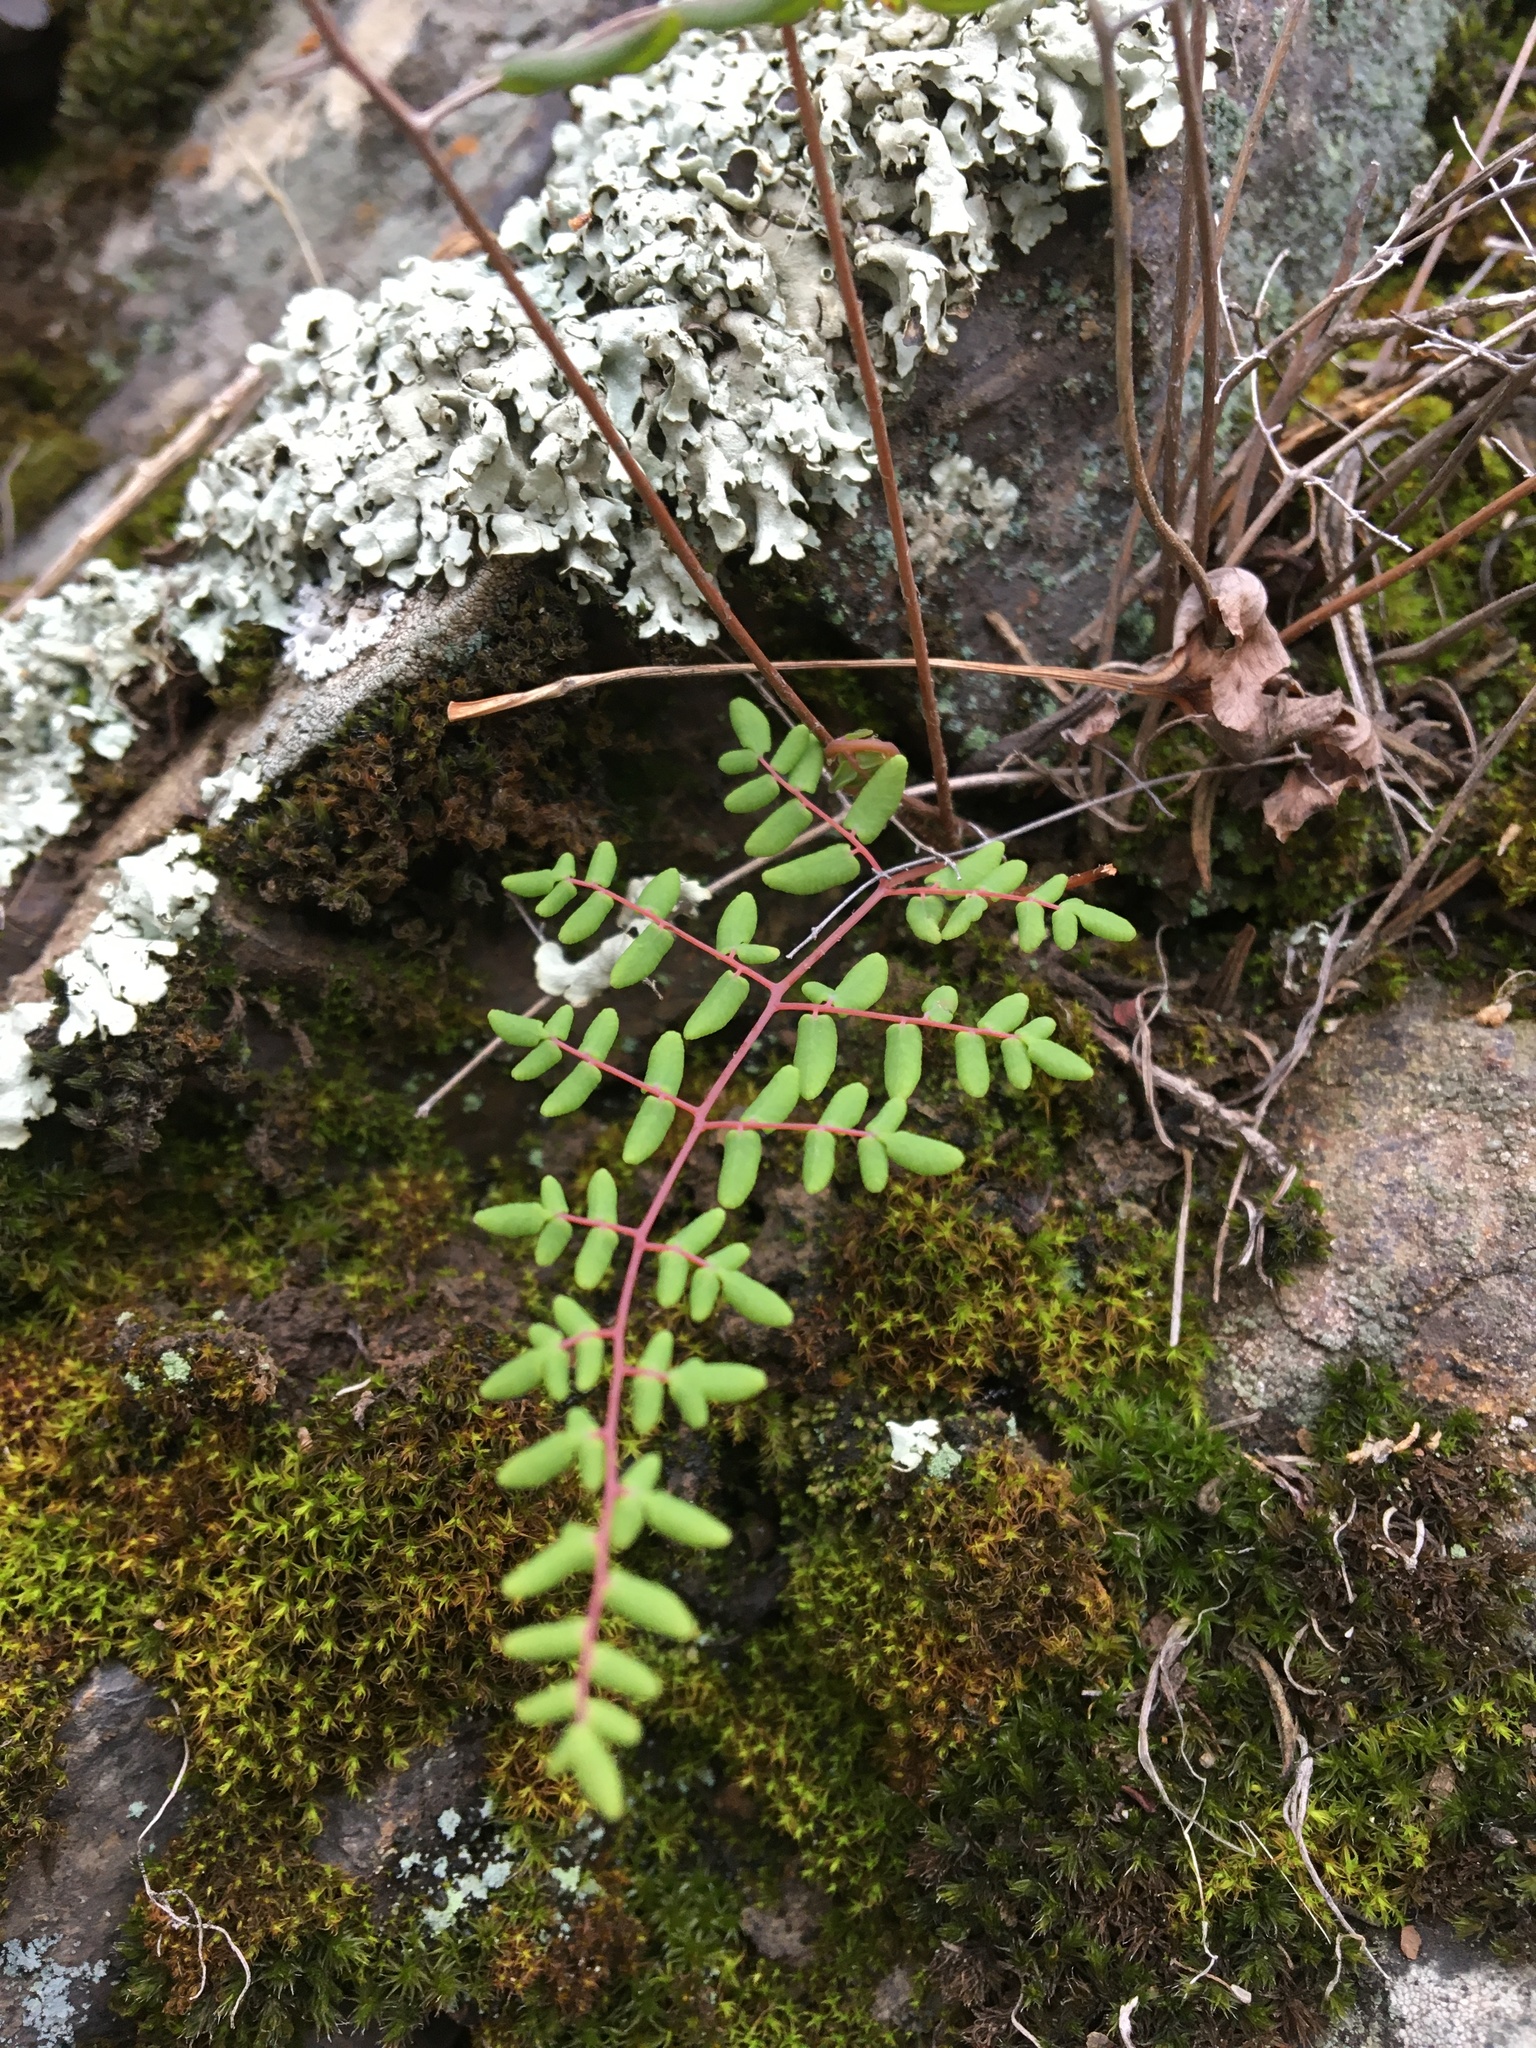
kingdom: Plantae
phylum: Tracheophyta
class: Polypodiopsida
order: Polypodiales
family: Pteridaceae
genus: Pellaea
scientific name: Pellaea andromedifolia
